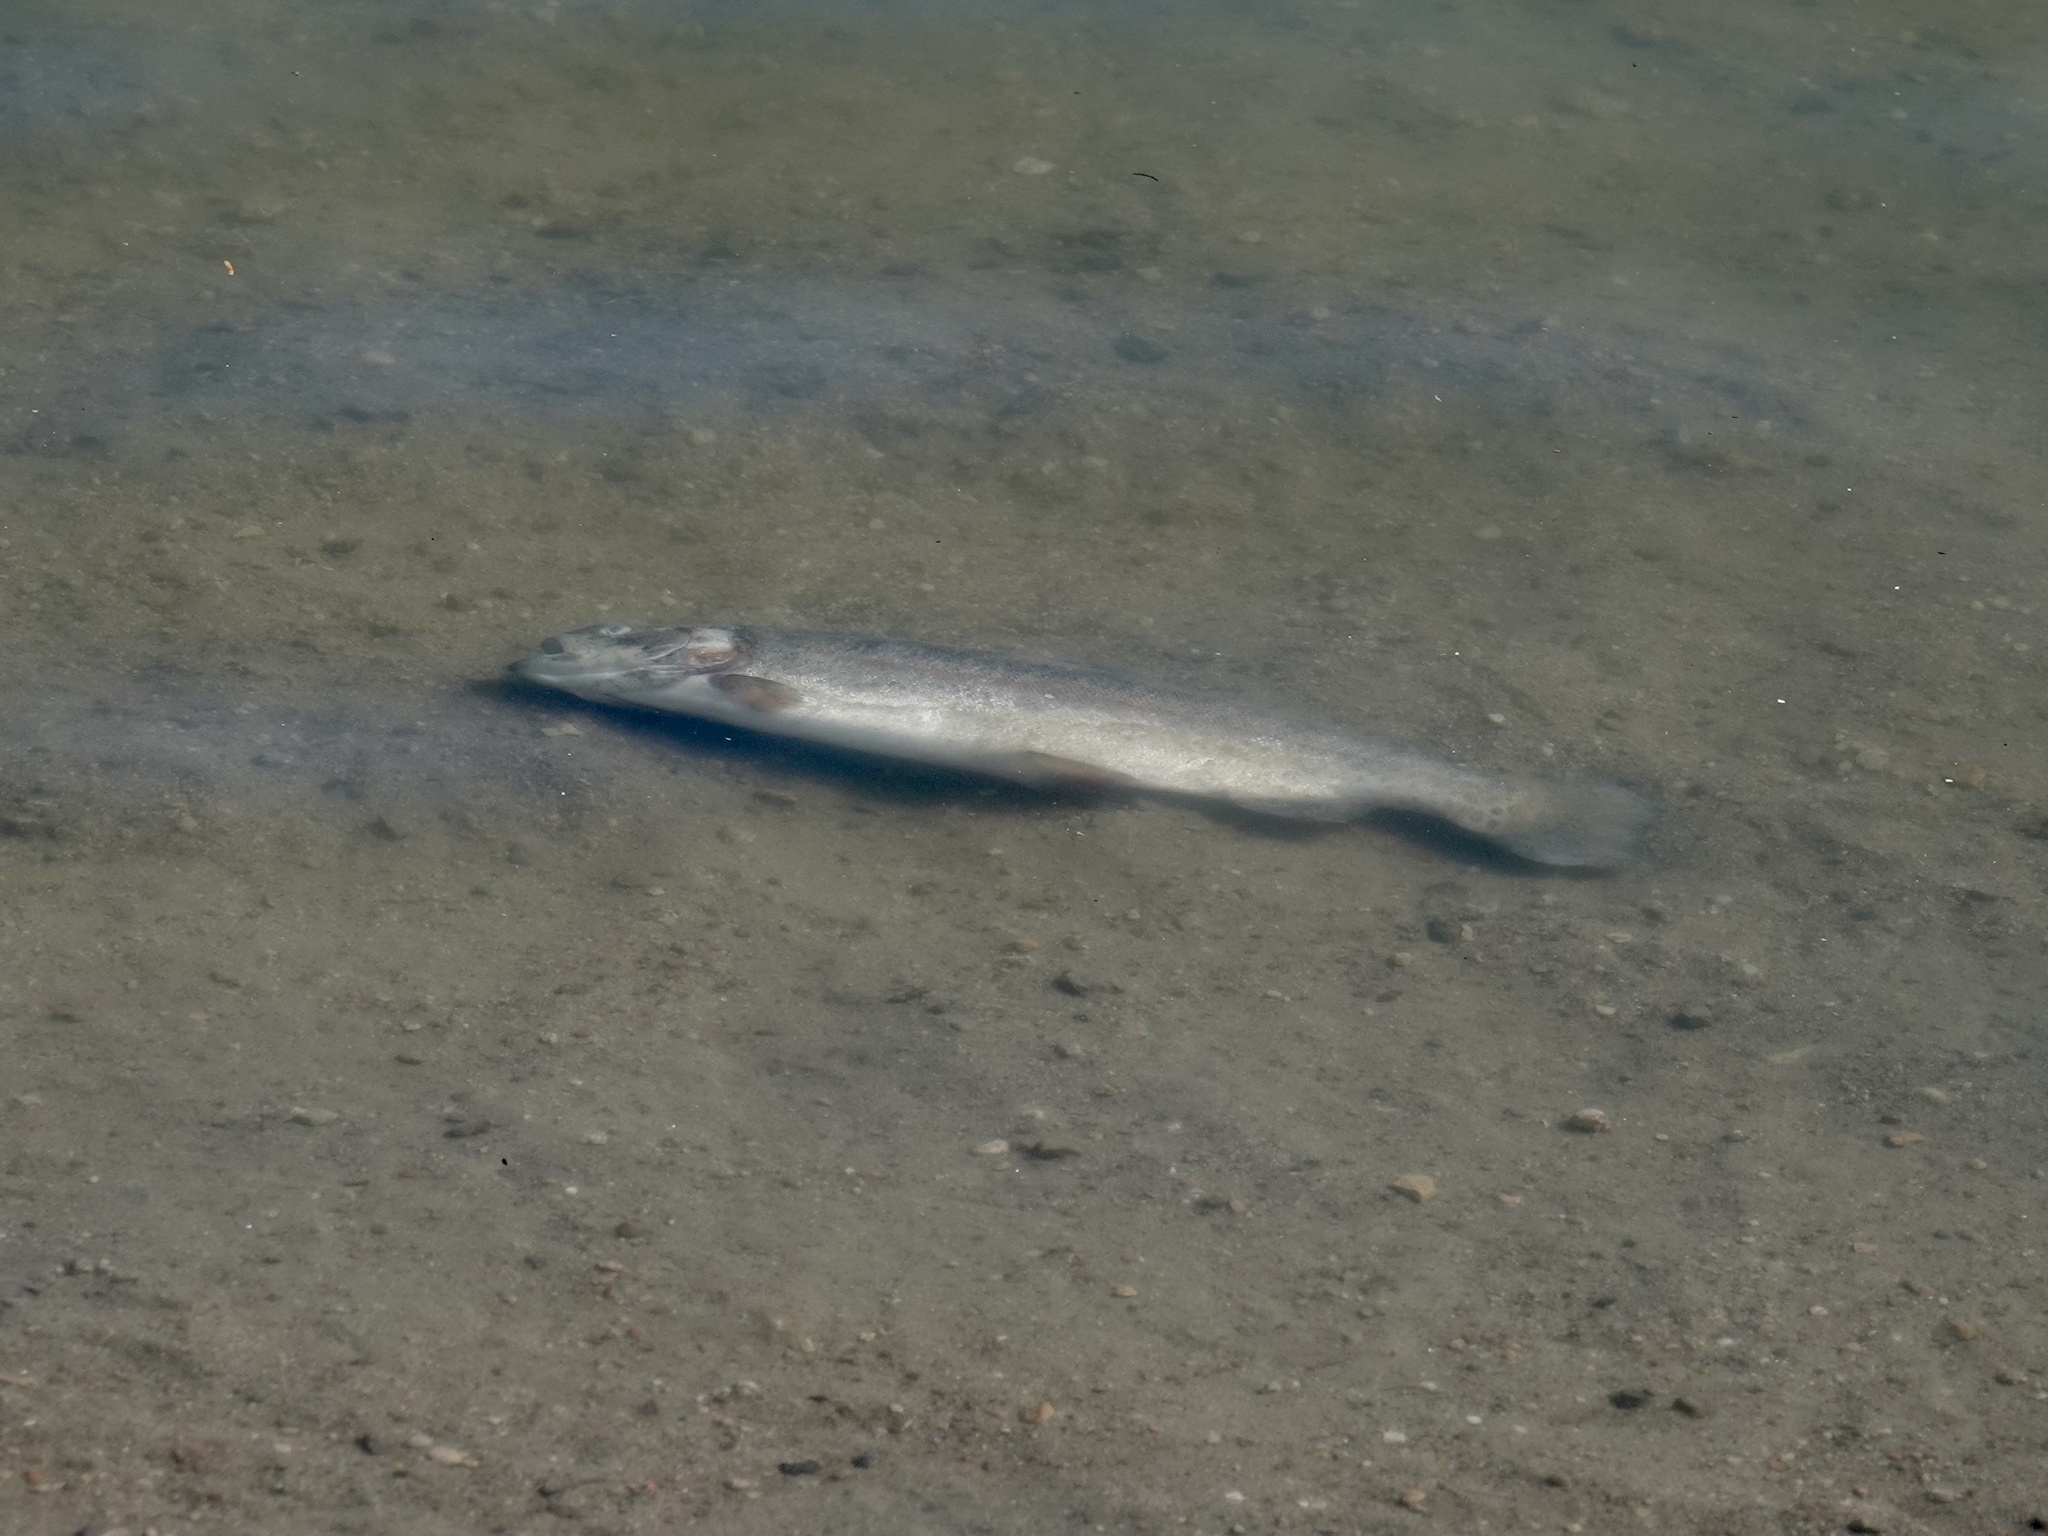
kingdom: Animalia
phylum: Chordata
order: Salmoniformes
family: Salmonidae
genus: Oncorhynchus
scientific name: Oncorhynchus mykiss
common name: Rainbow trout
